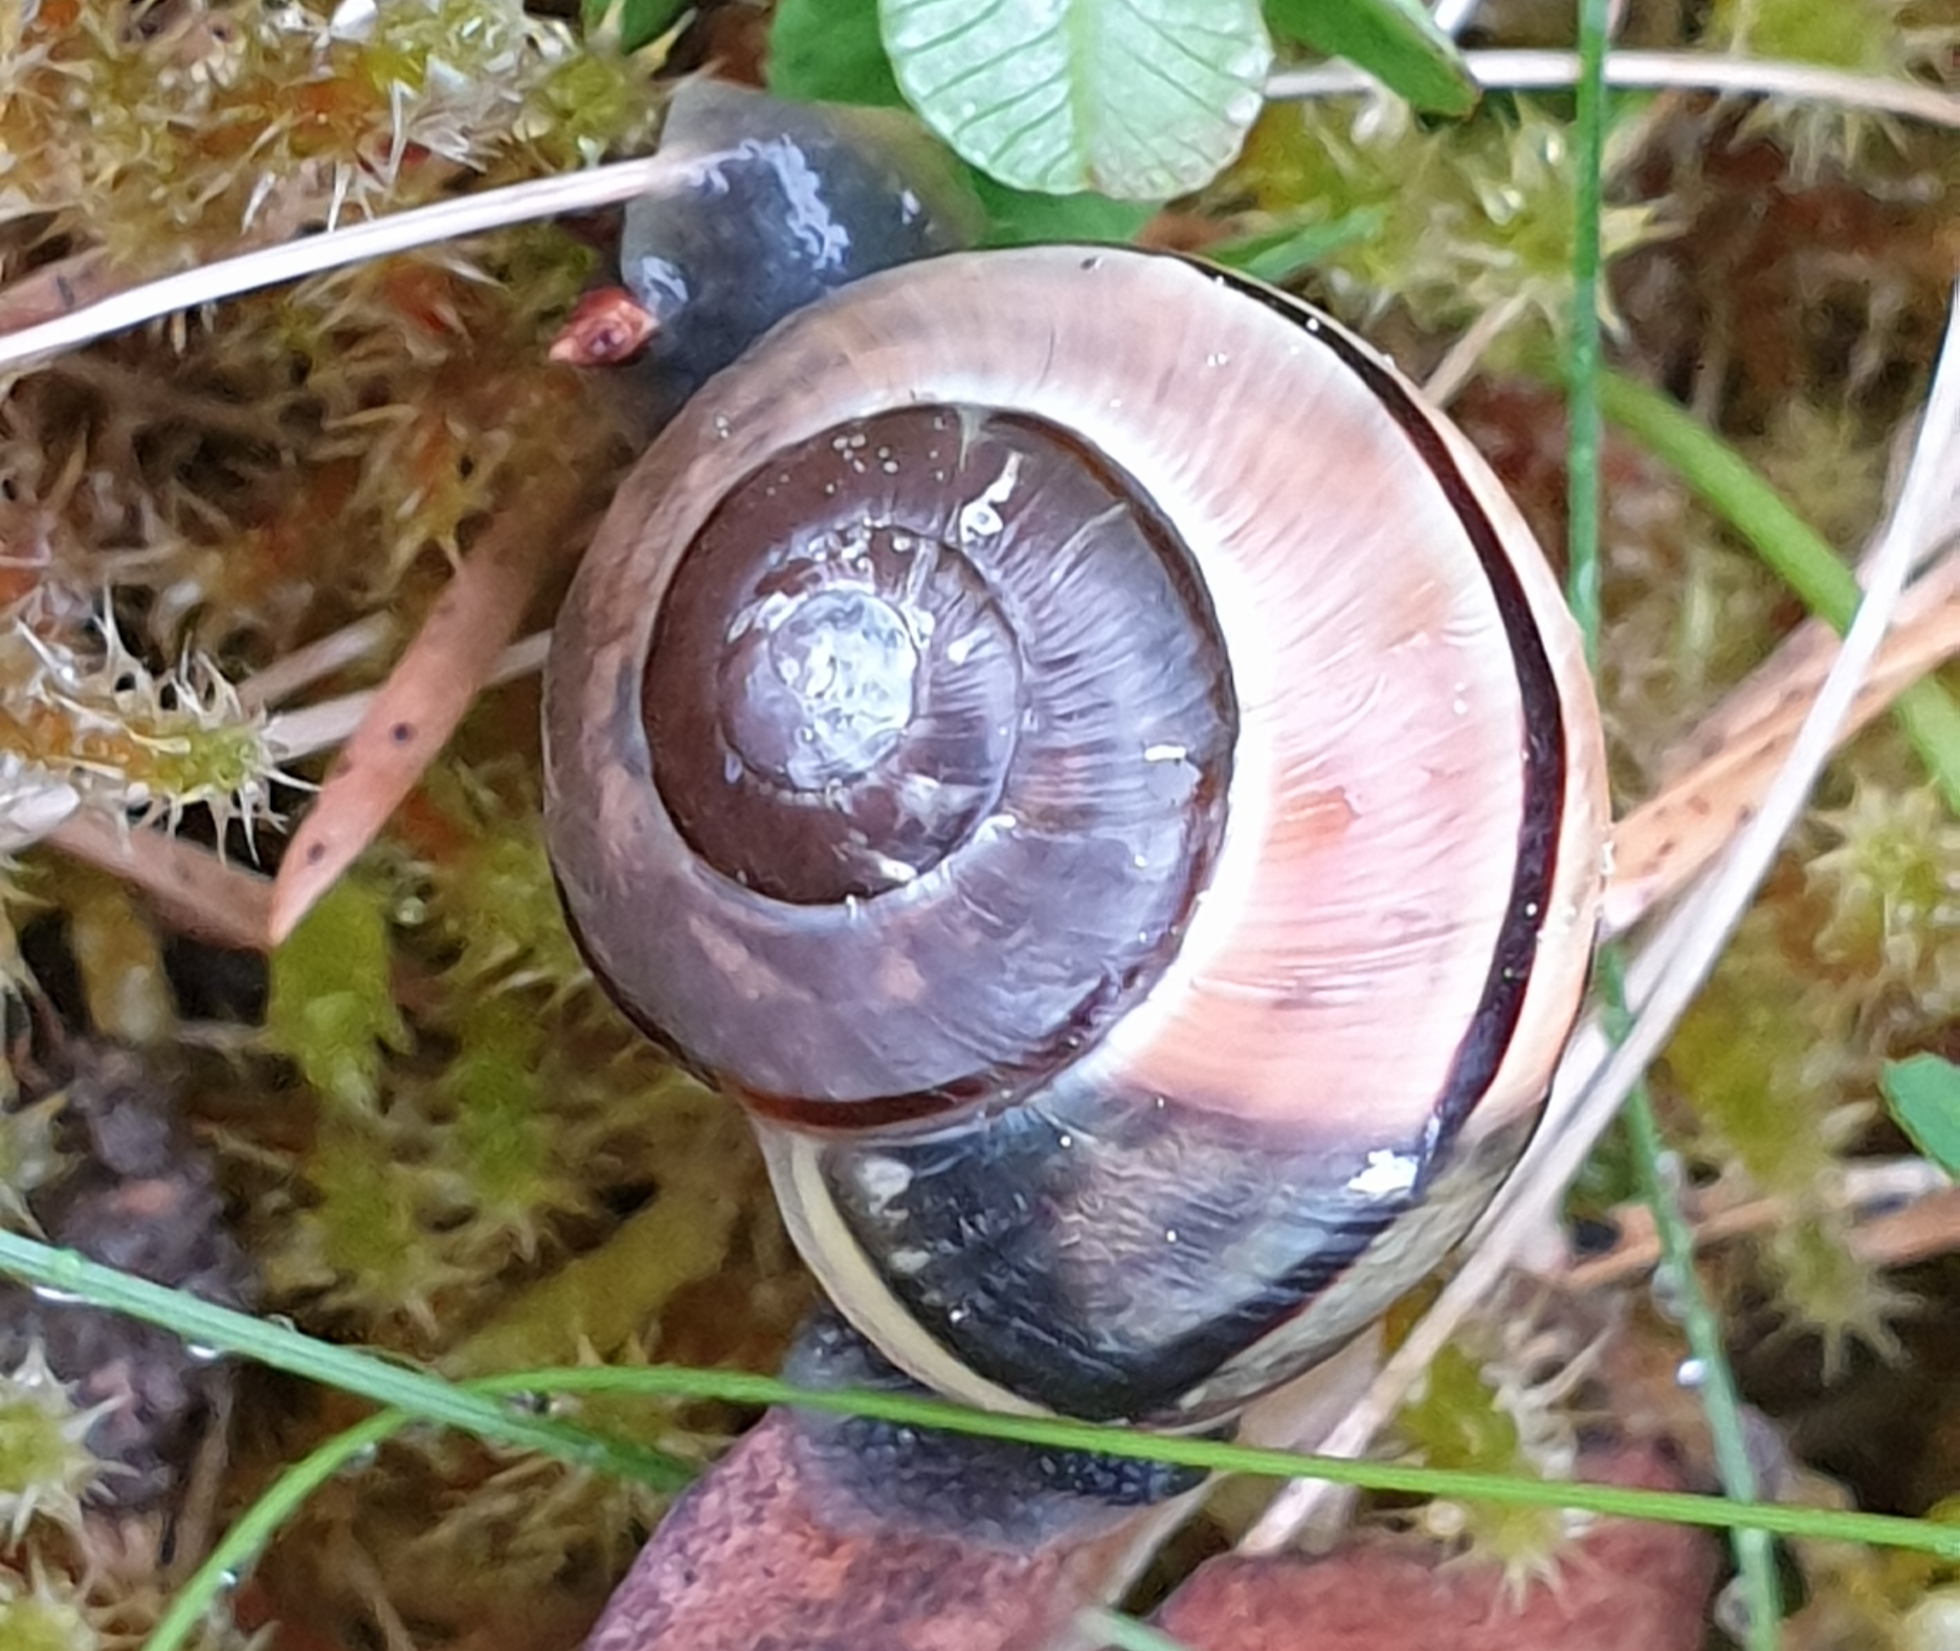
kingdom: Animalia
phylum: Mollusca
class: Gastropoda
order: Stylommatophora
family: Helicidae
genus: Cepaea
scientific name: Cepaea nemoralis
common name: Grovesnail
